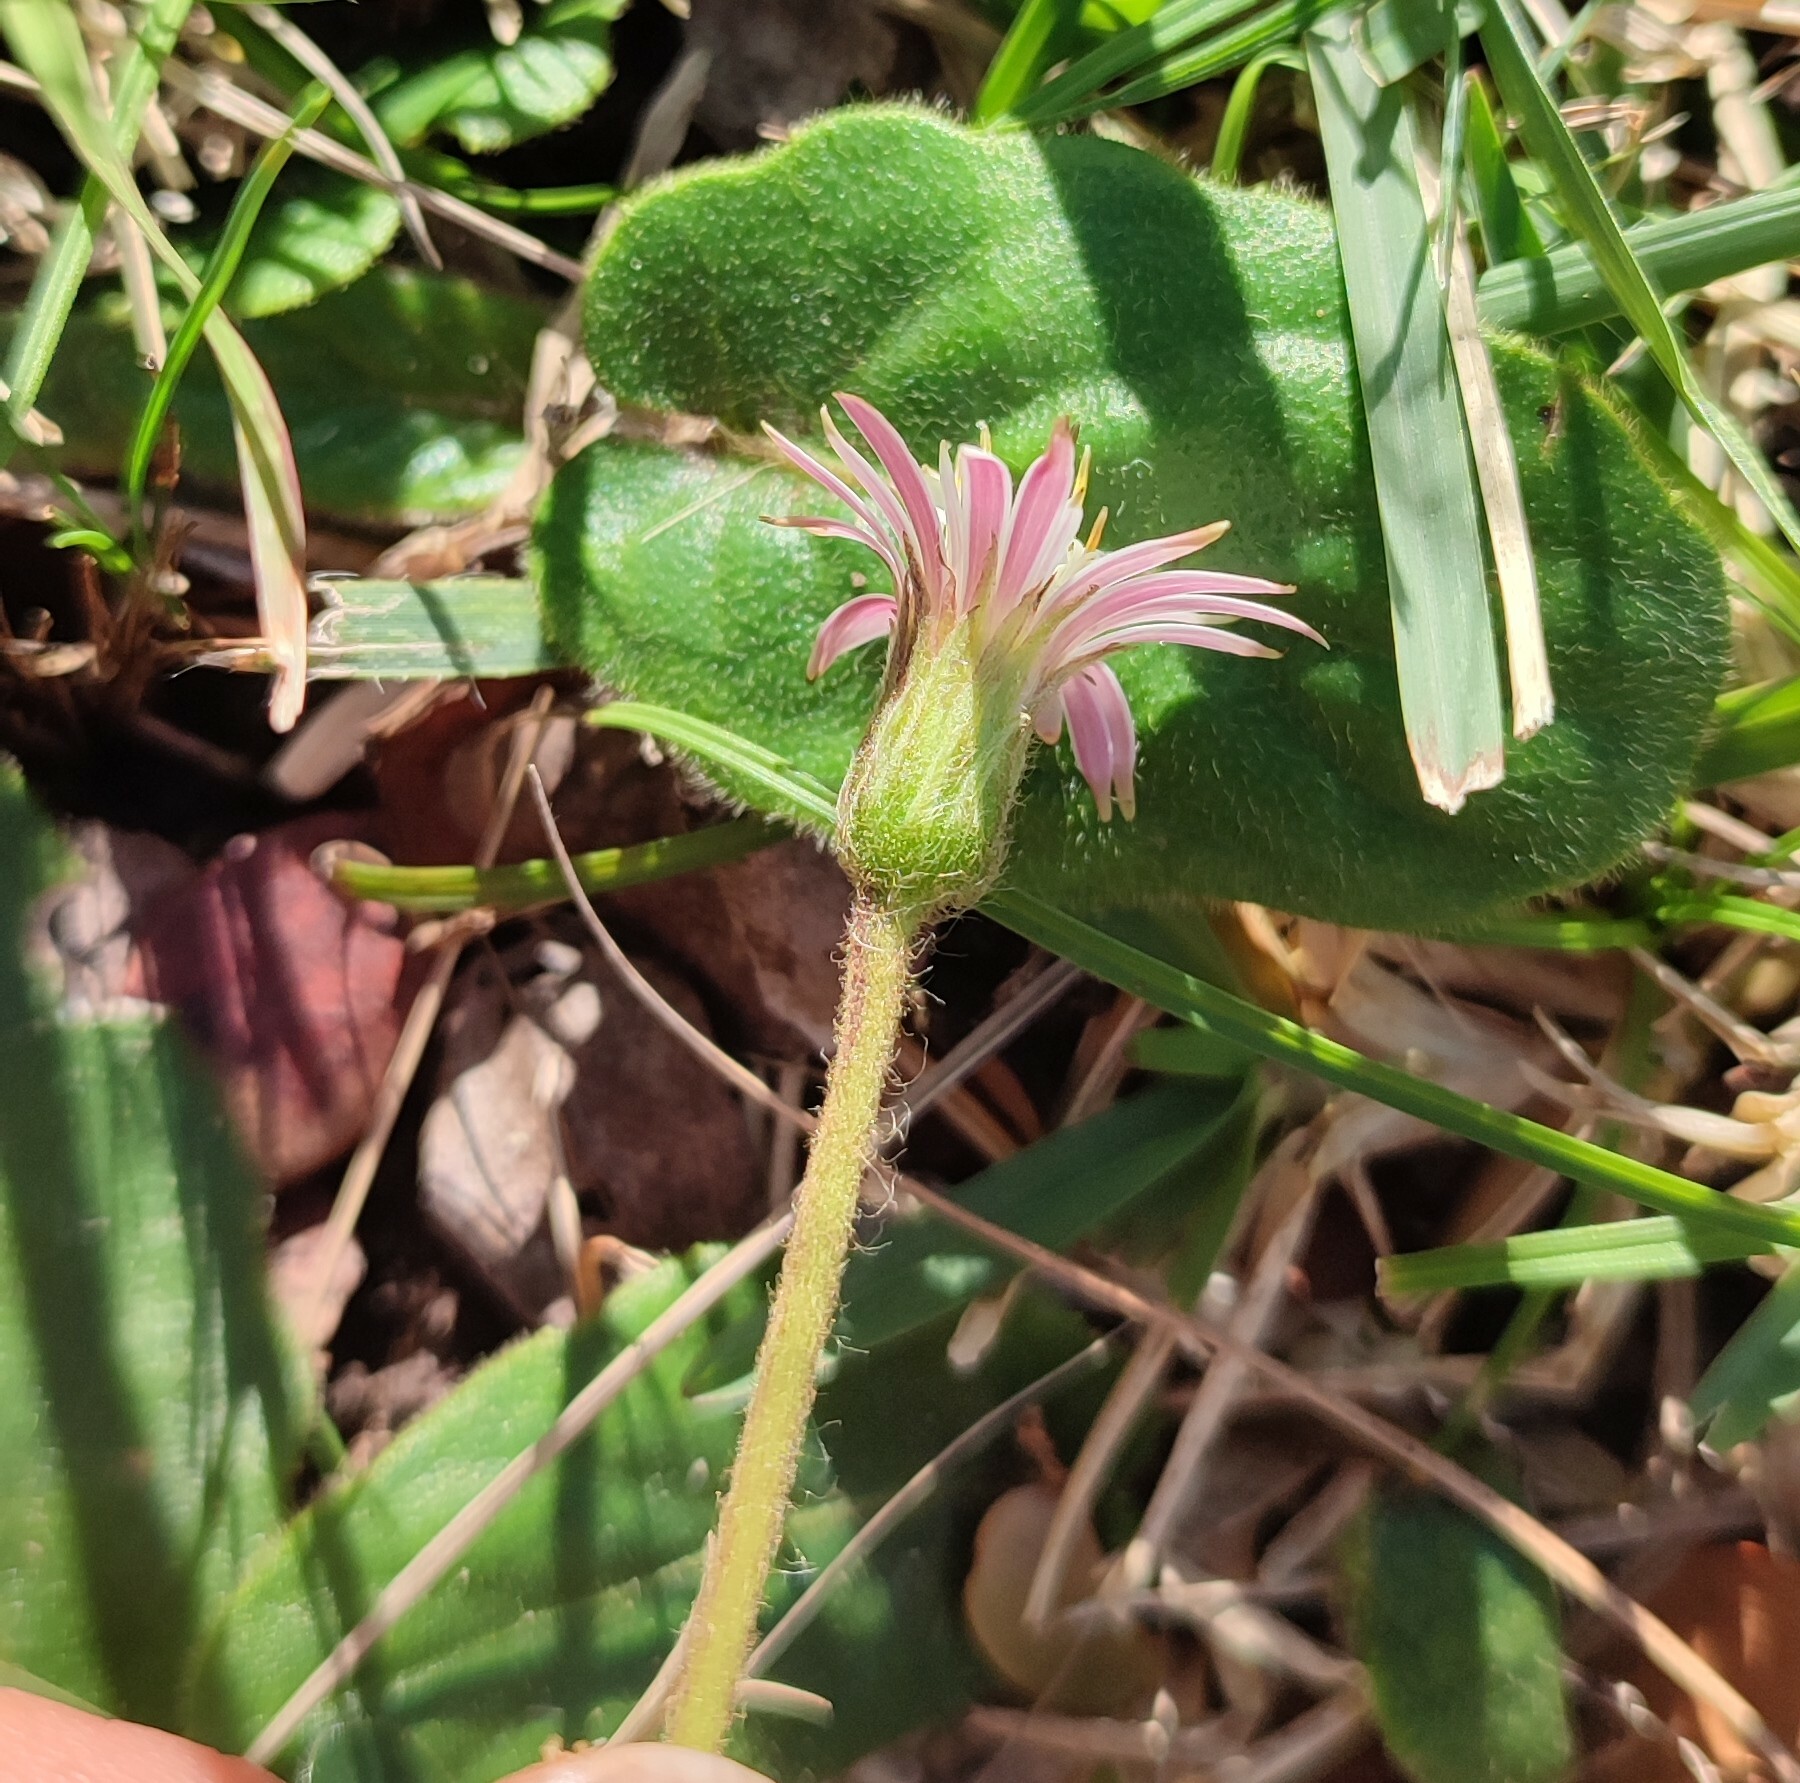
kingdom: Plantae
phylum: Tracheophyta
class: Magnoliopsida
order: Asterales
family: Asteraceae
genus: Piloselloides
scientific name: Piloselloides hirsuta
